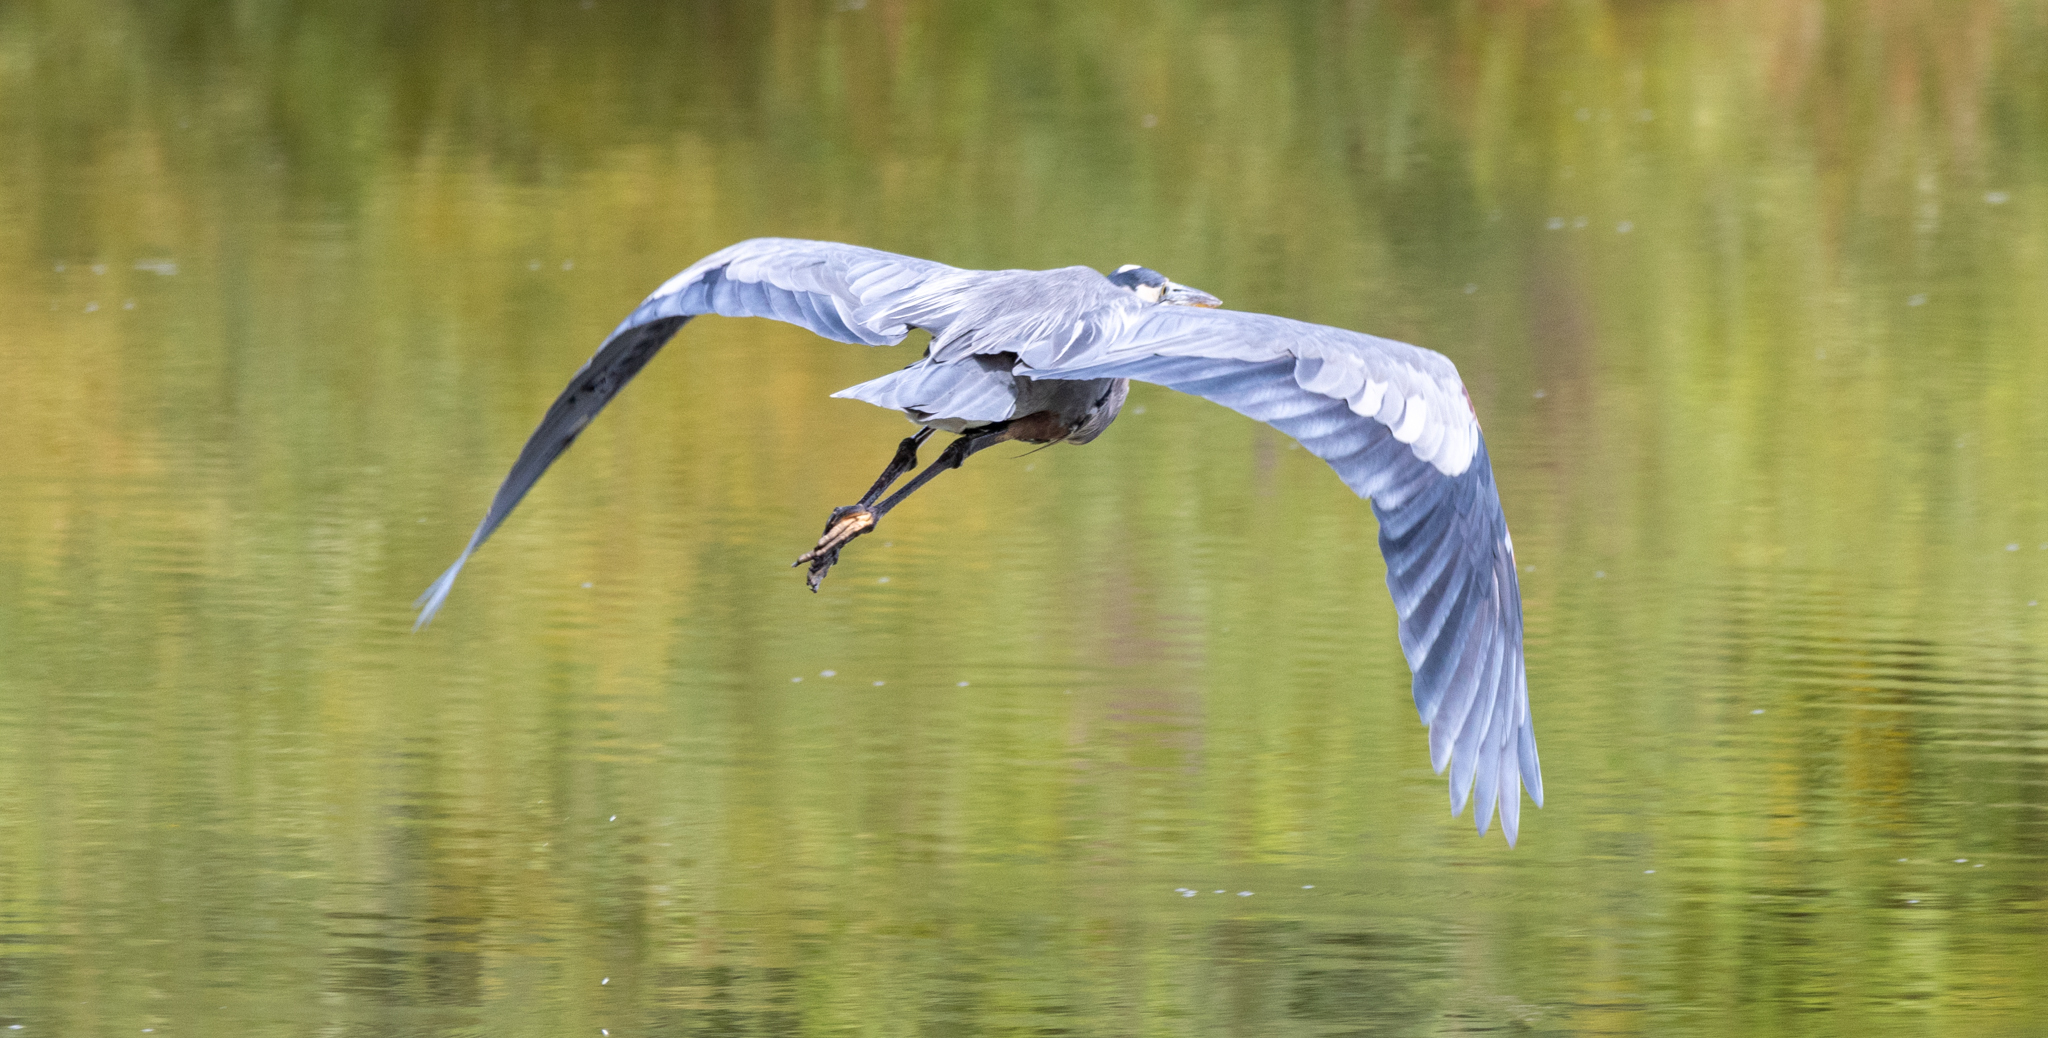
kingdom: Animalia
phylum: Chordata
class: Aves
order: Pelecaniformes
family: Ardeidae
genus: Ardea
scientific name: Ardea herodias
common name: Great blue heron
